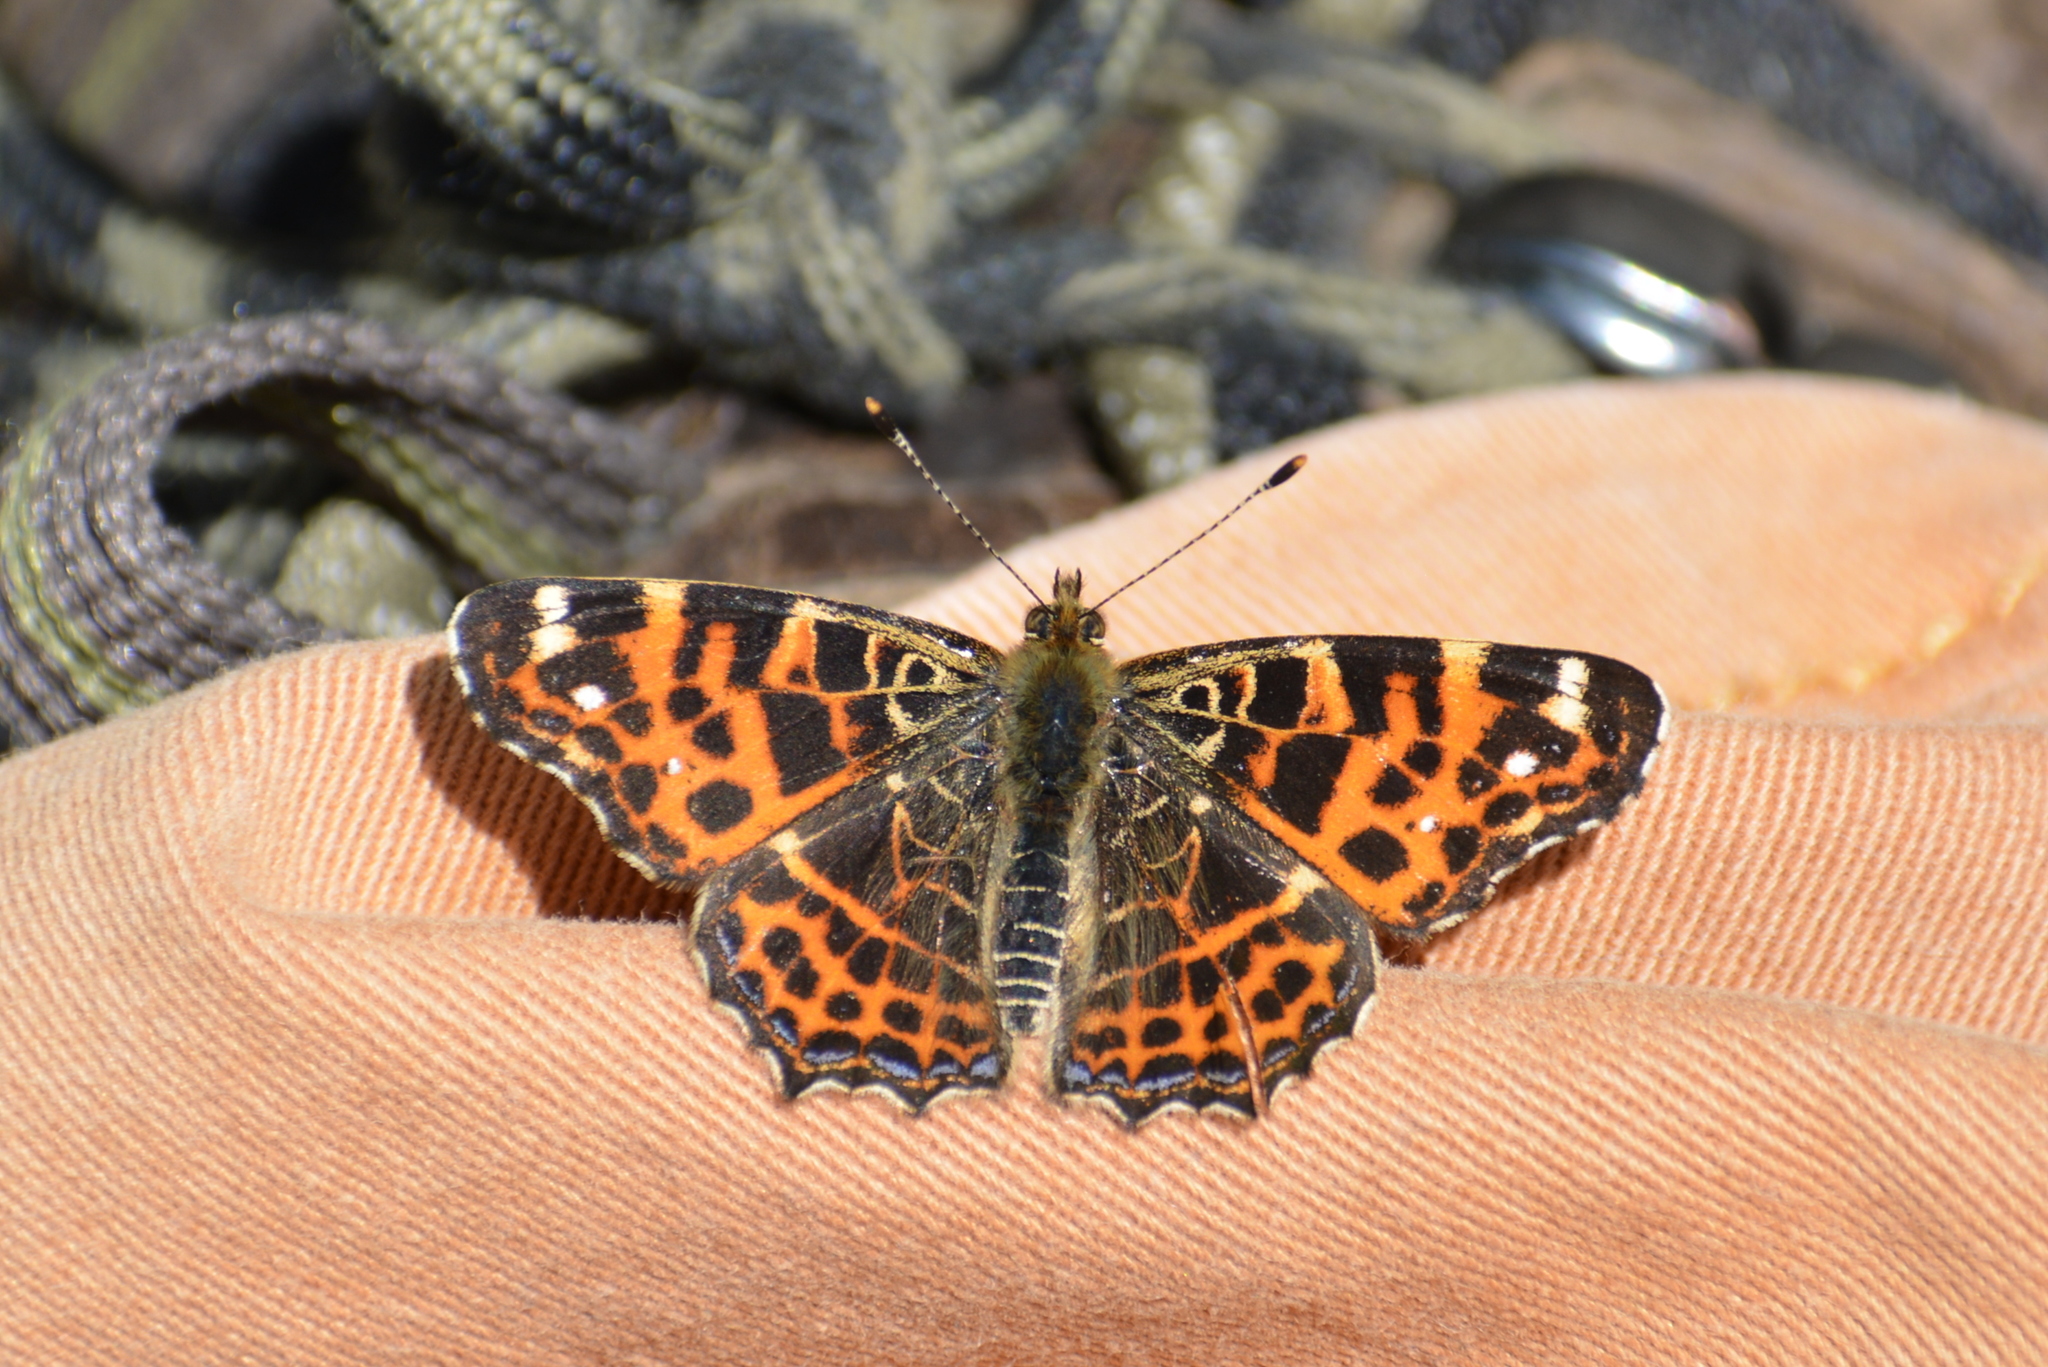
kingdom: Animalia
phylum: Arthropoda
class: Insecta
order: Lepidoptera
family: Nymphalidae
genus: Araschnia
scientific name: Araschnia levana
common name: Map butterfly
